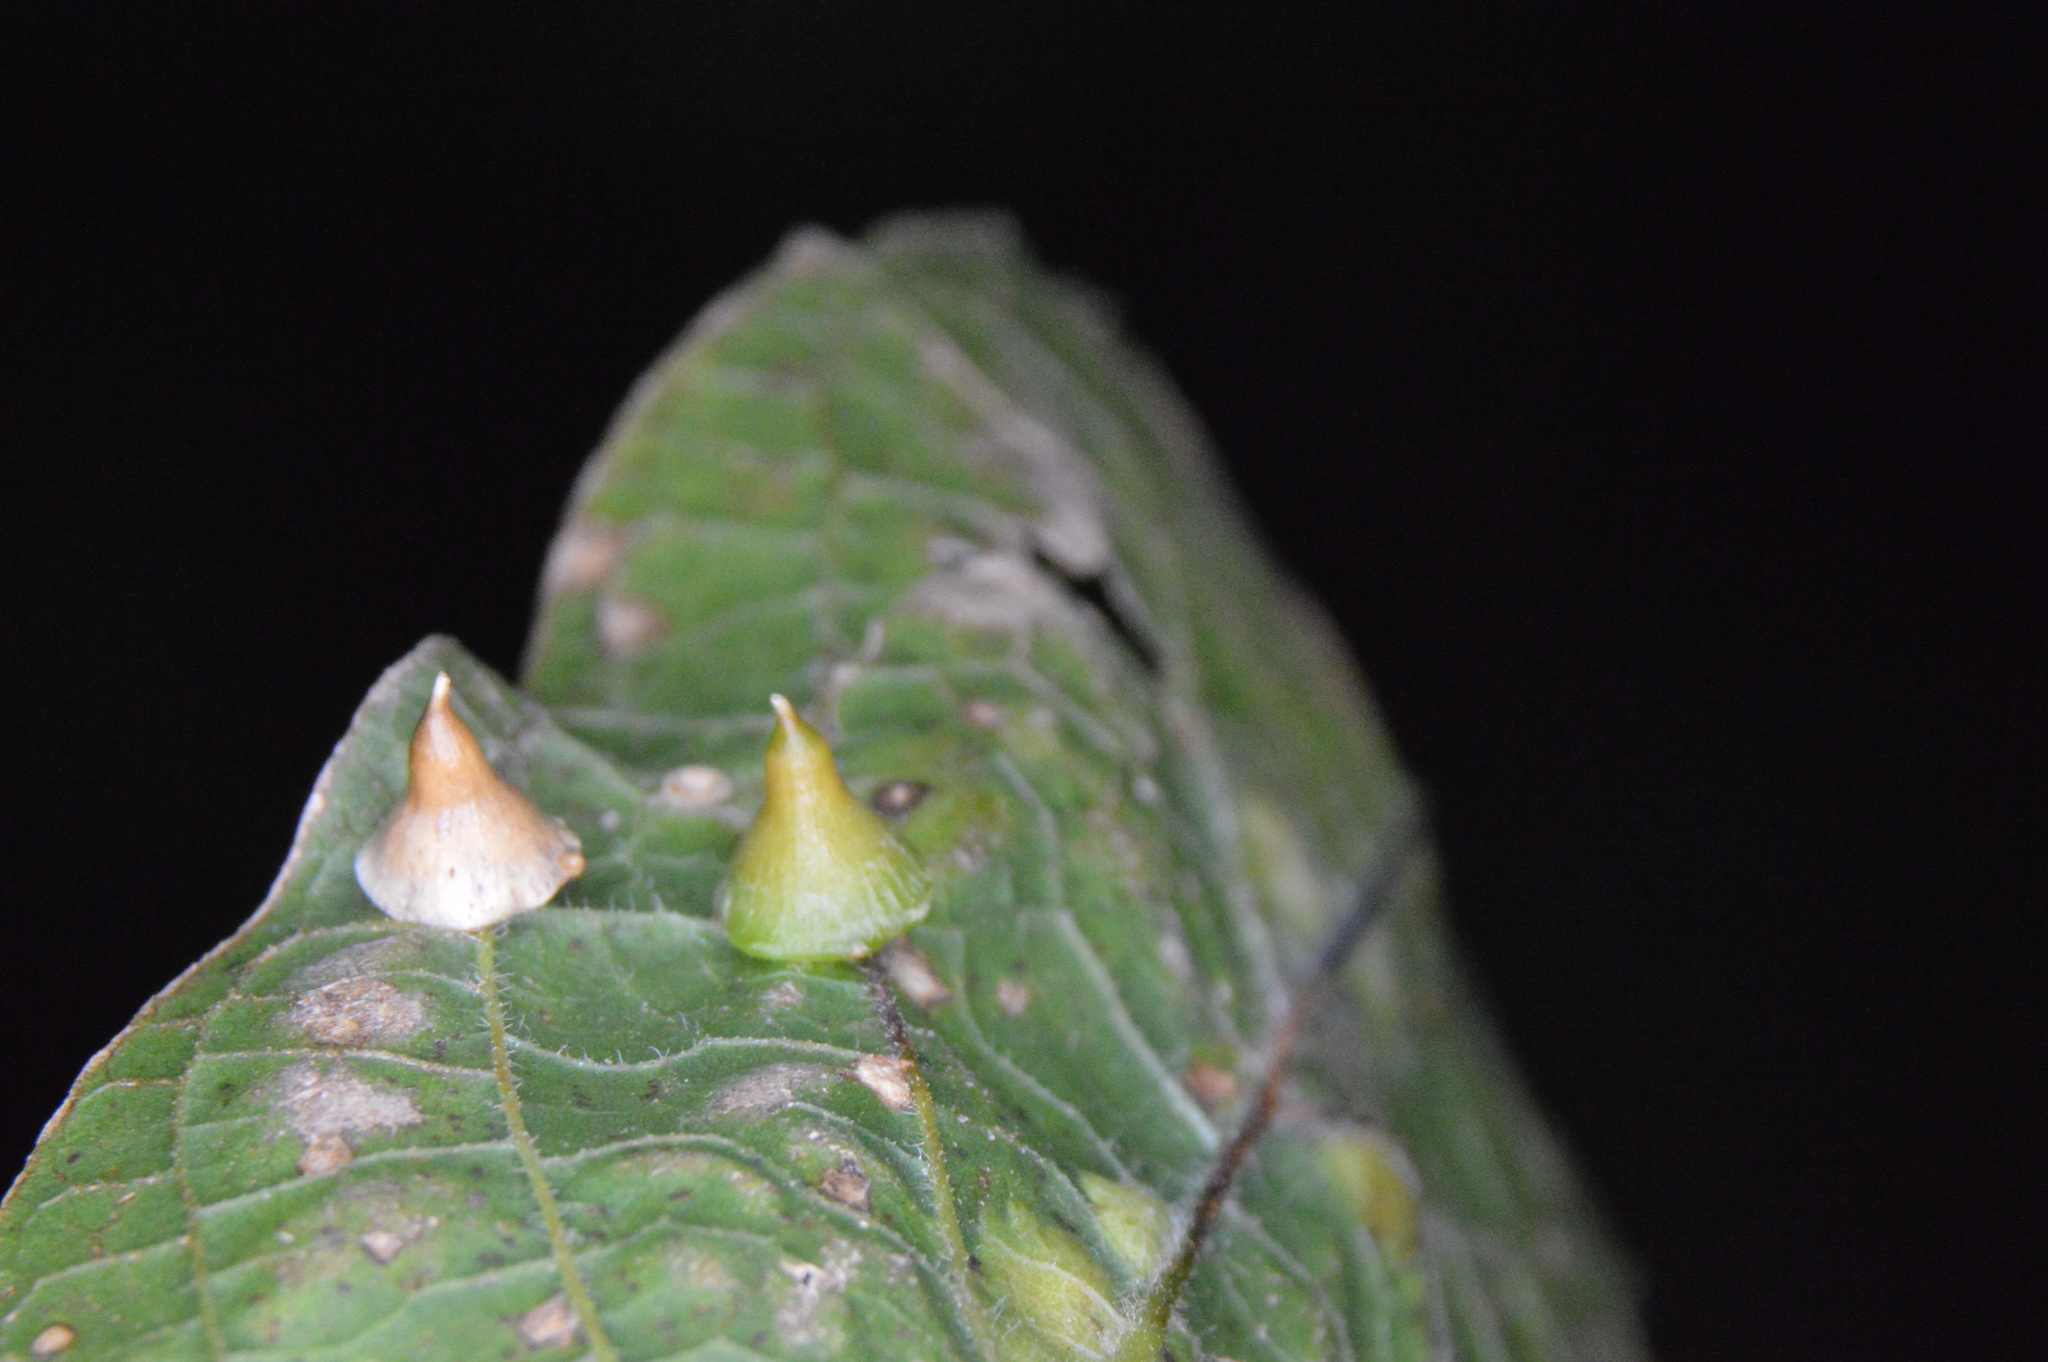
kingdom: Animalia
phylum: Arthropoda
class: Insecta
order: Diptera
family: Cecidomyiidae
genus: Celticecis
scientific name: Celticecis spiniformis
